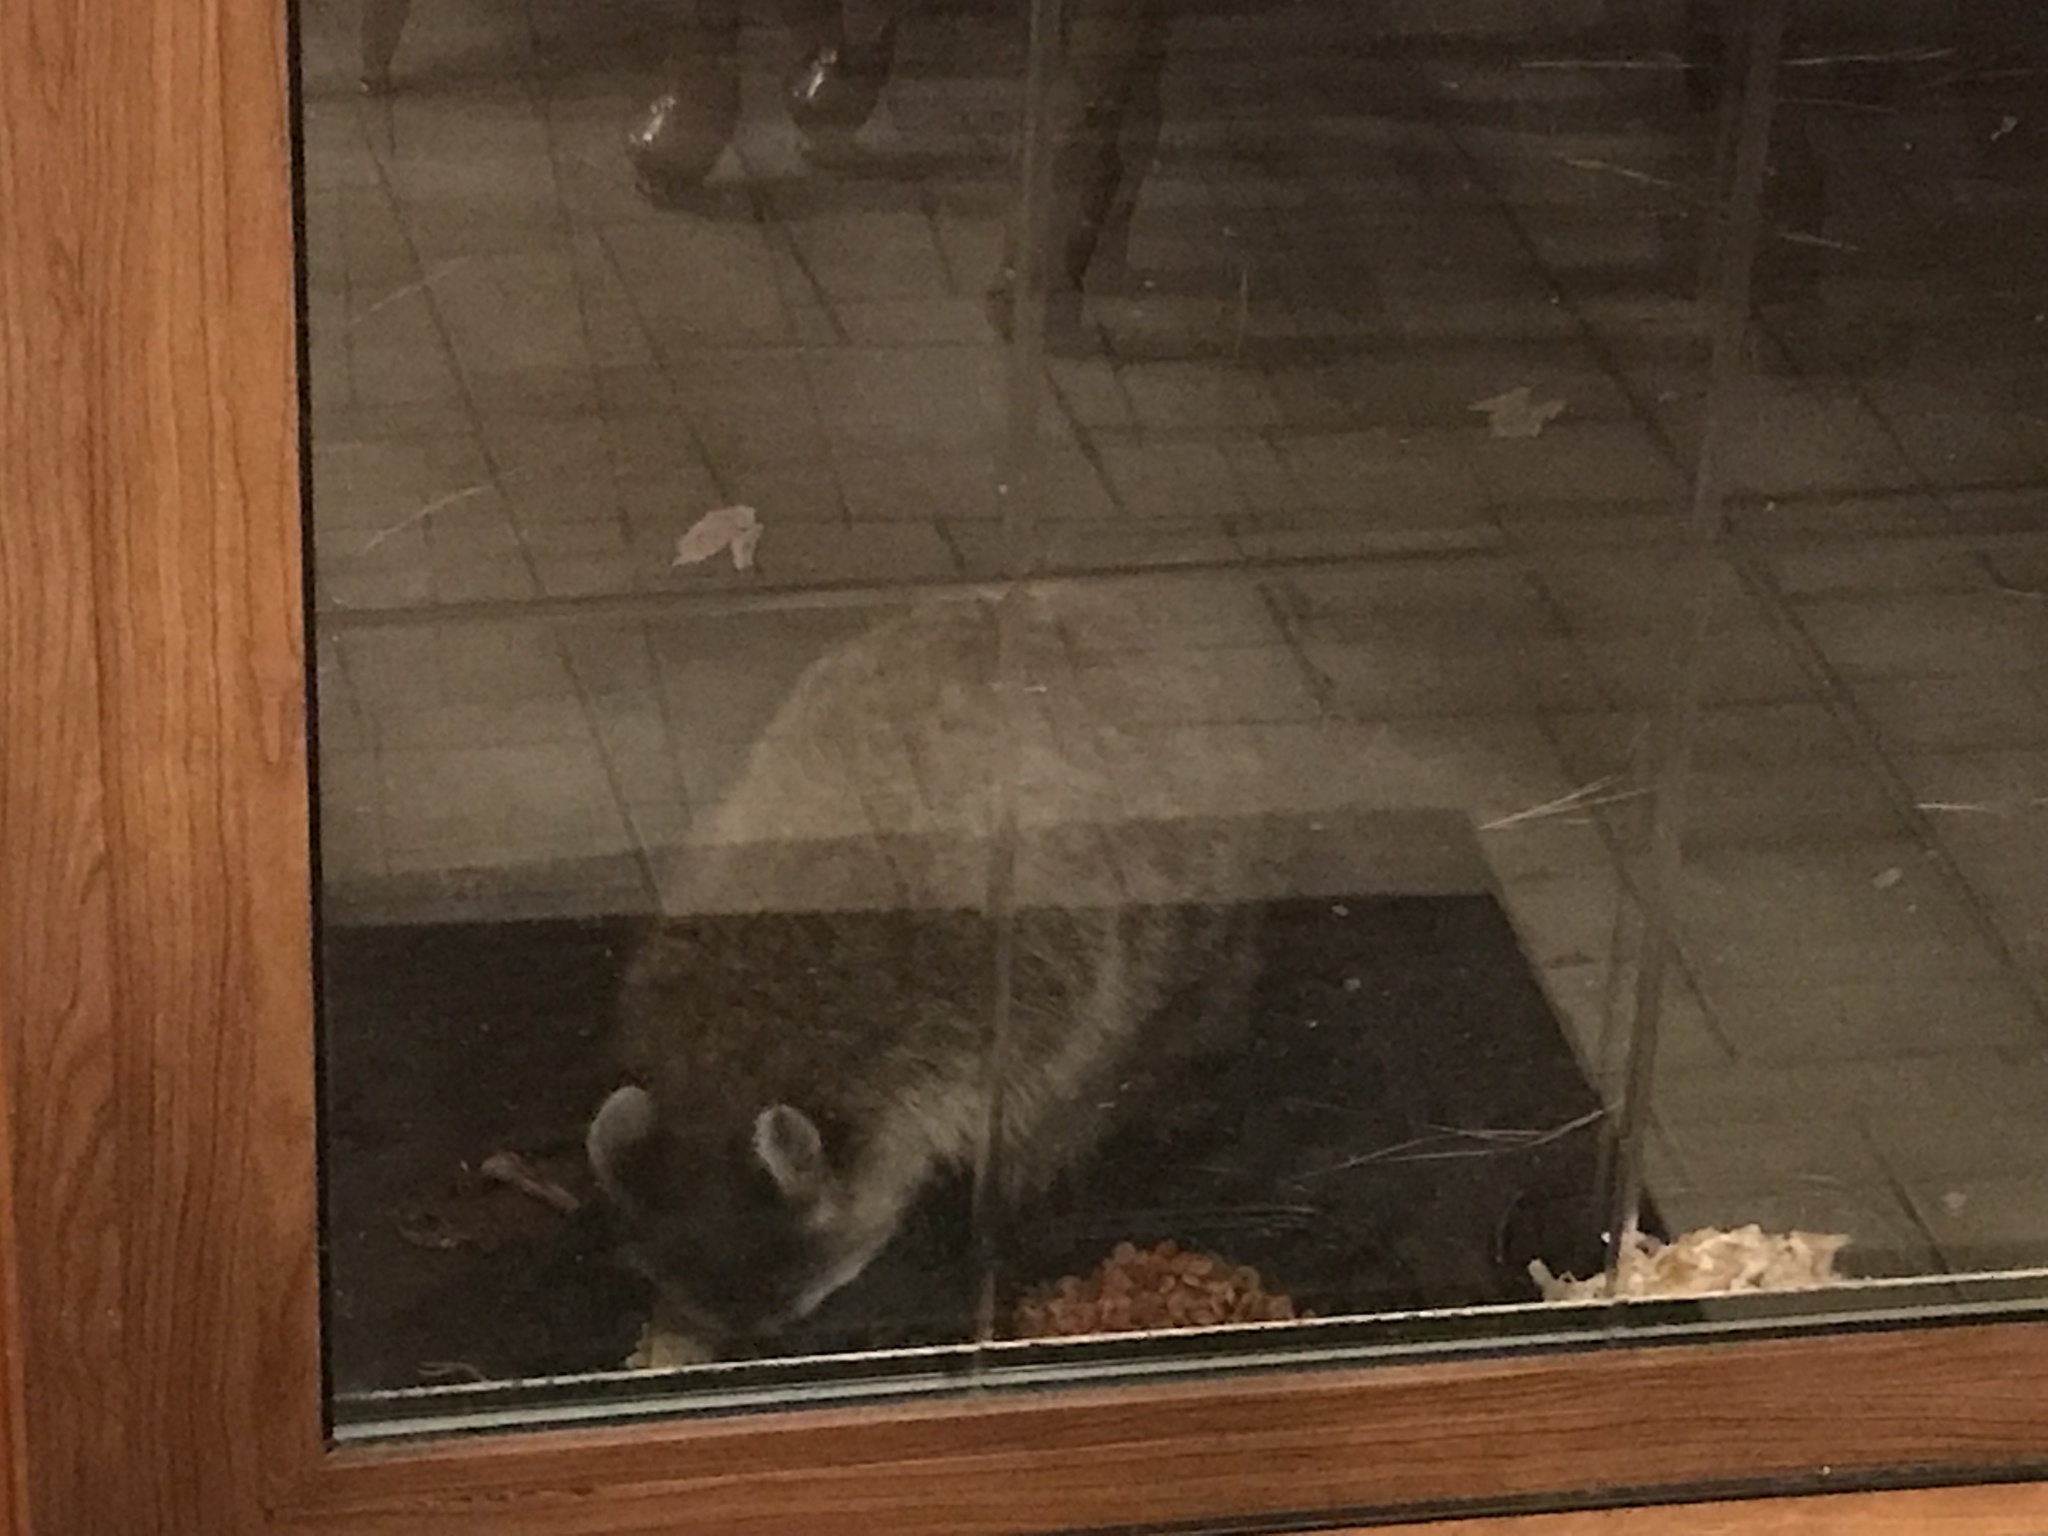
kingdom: Animalia
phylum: Chordata
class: Mammalia
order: Carnivora
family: Procyonidae
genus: Procyon
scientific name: Procyon lotor
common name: Raccoon
